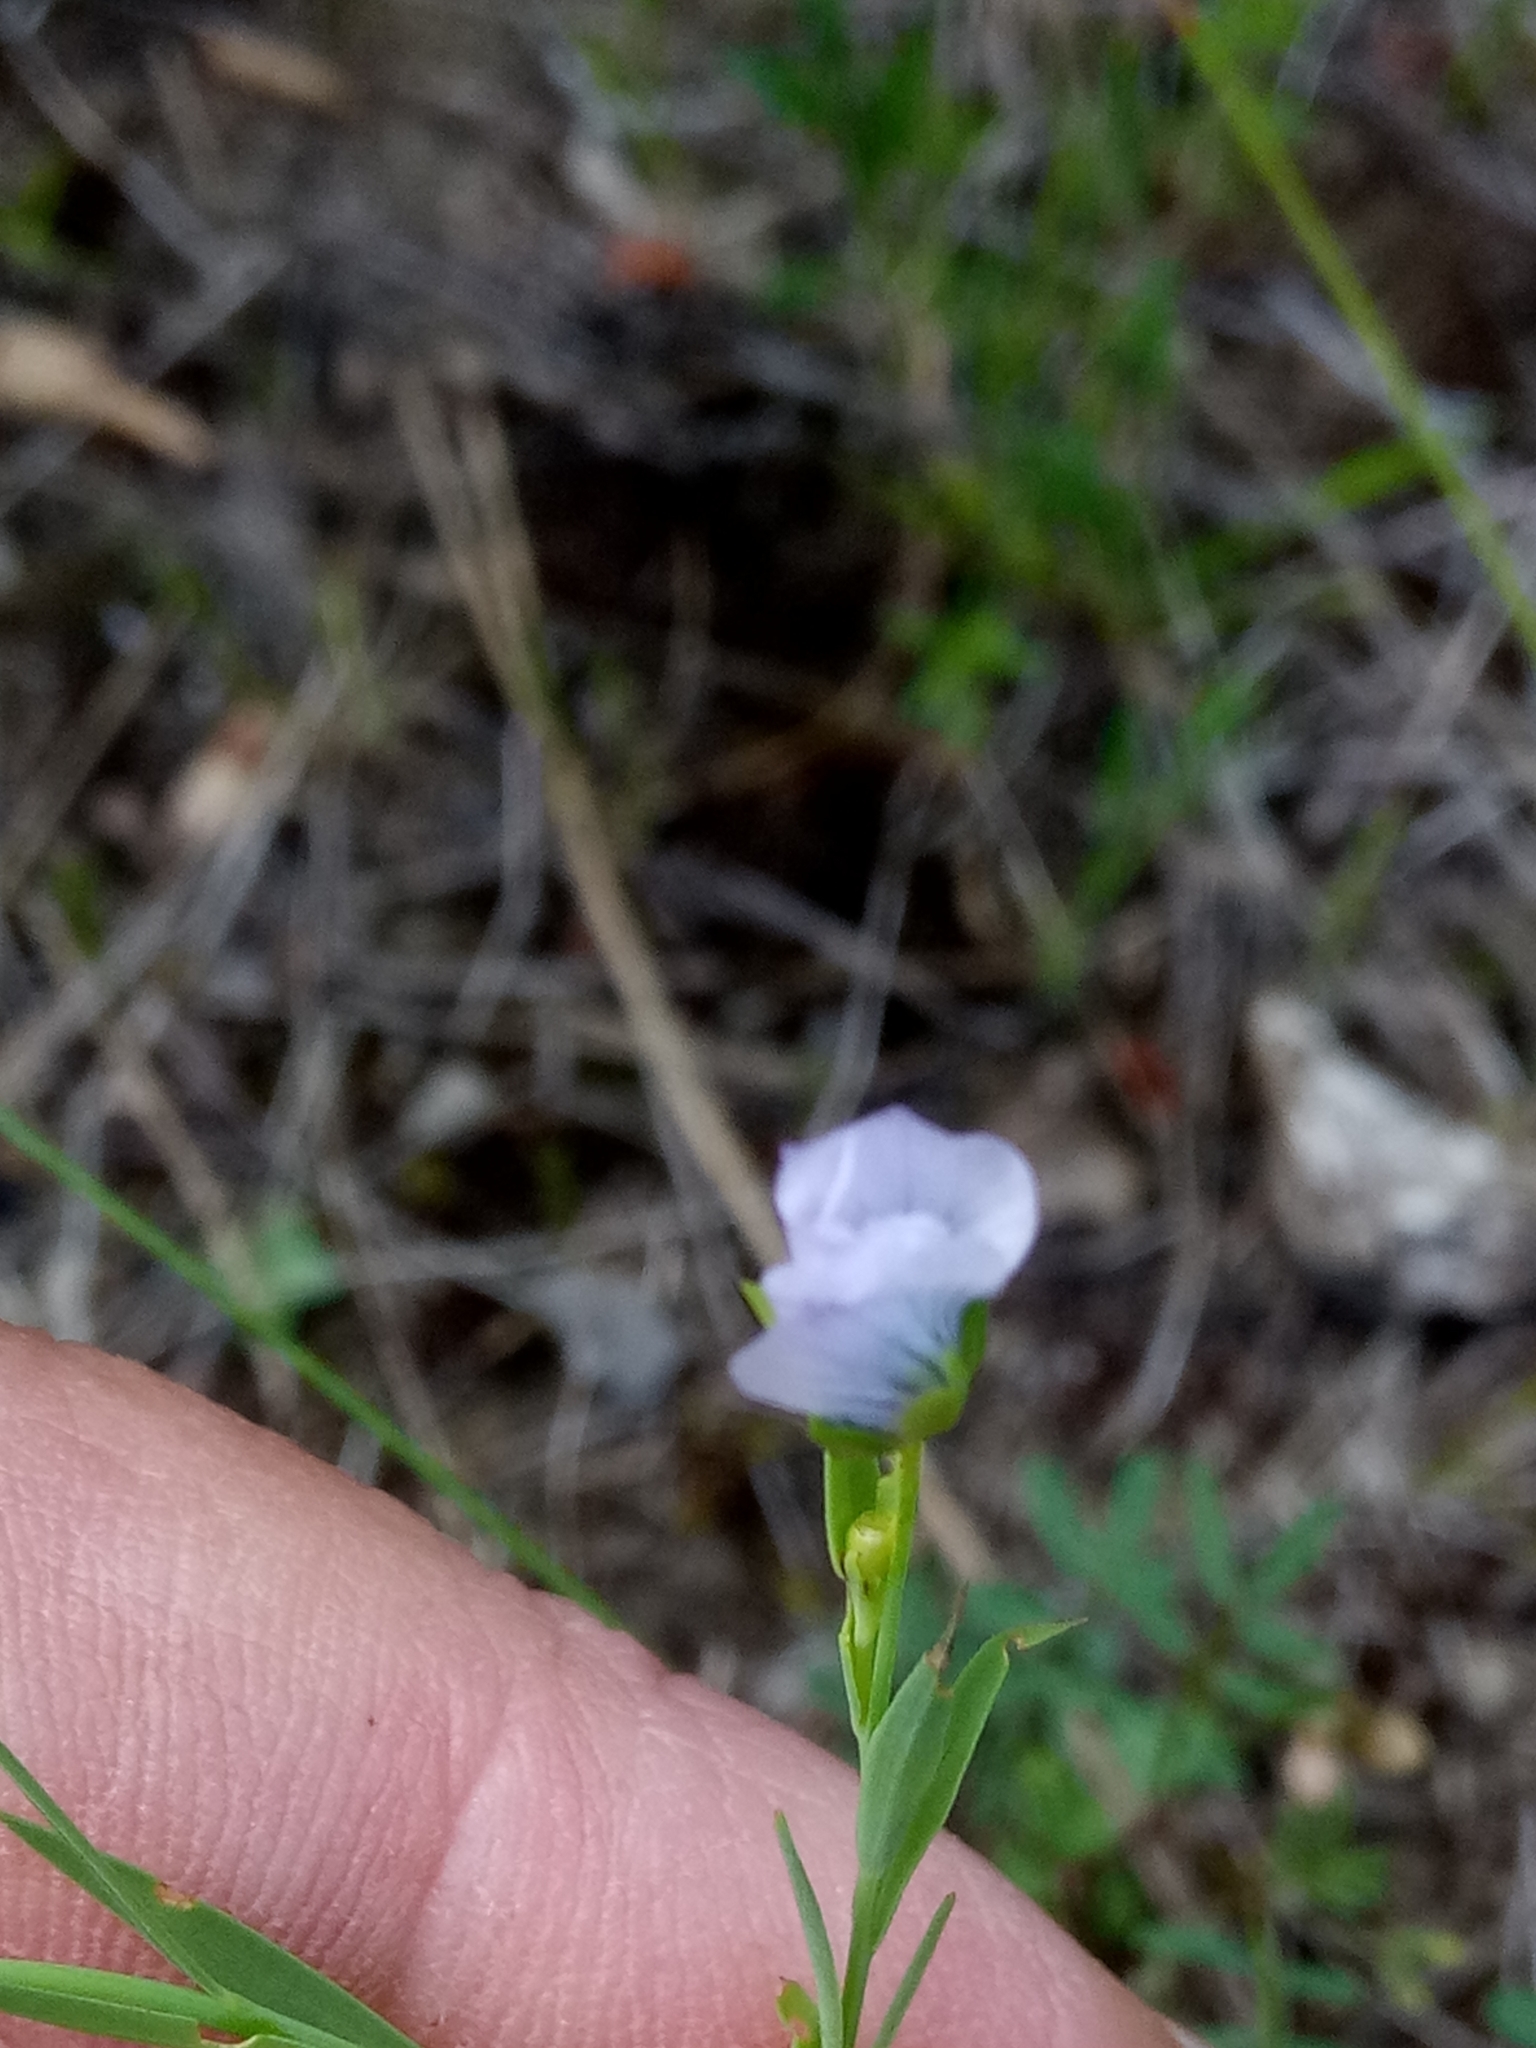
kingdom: Plantae
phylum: Tracheophyta
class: Magnoliopsida
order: Malpighiales
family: Linaceae
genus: Linum
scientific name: Linum bienne
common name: Pale flax
